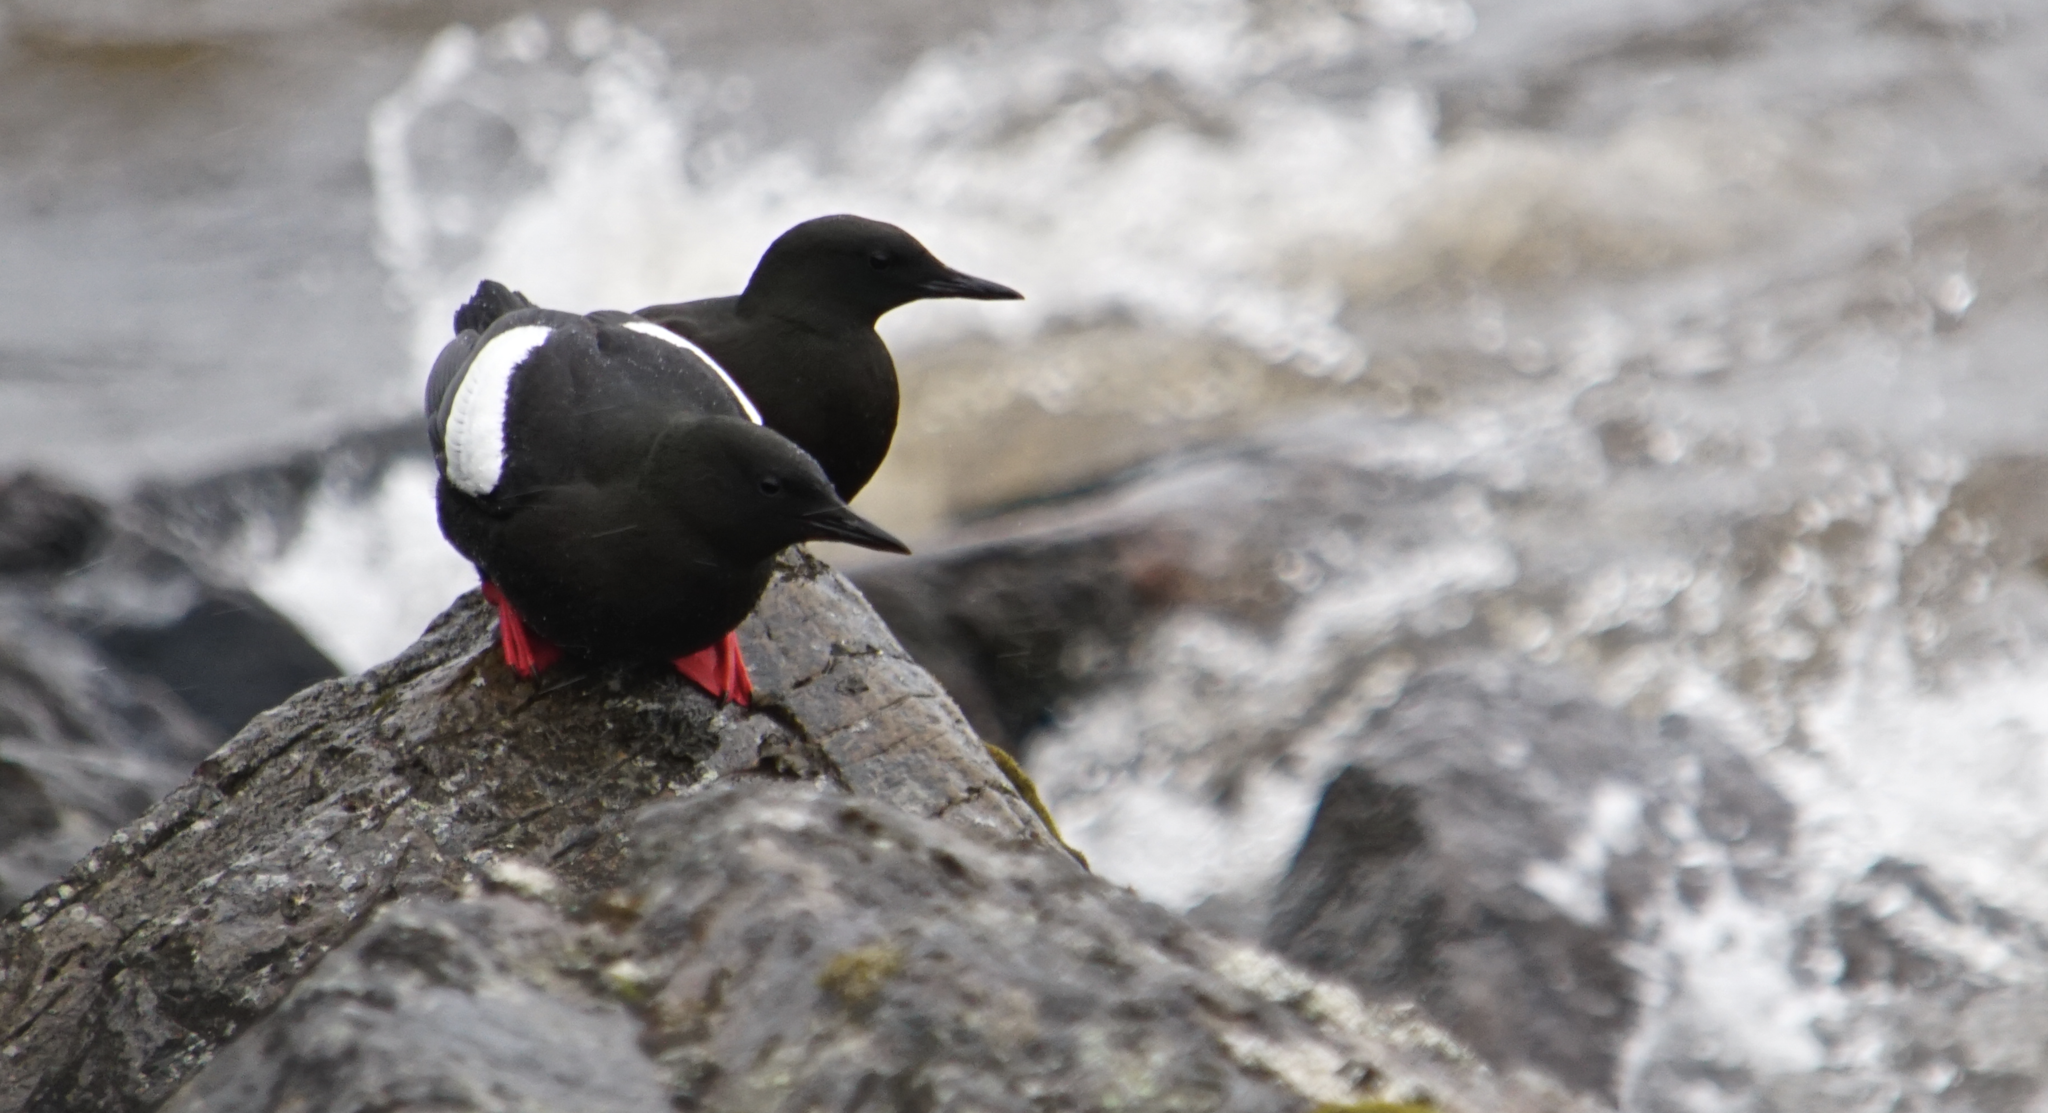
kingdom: Animalia
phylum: Chordata
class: Aves
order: Charadriiformes
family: Alcidae
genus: Cepphus
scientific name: Cepphus grylle
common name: Black guillemot
